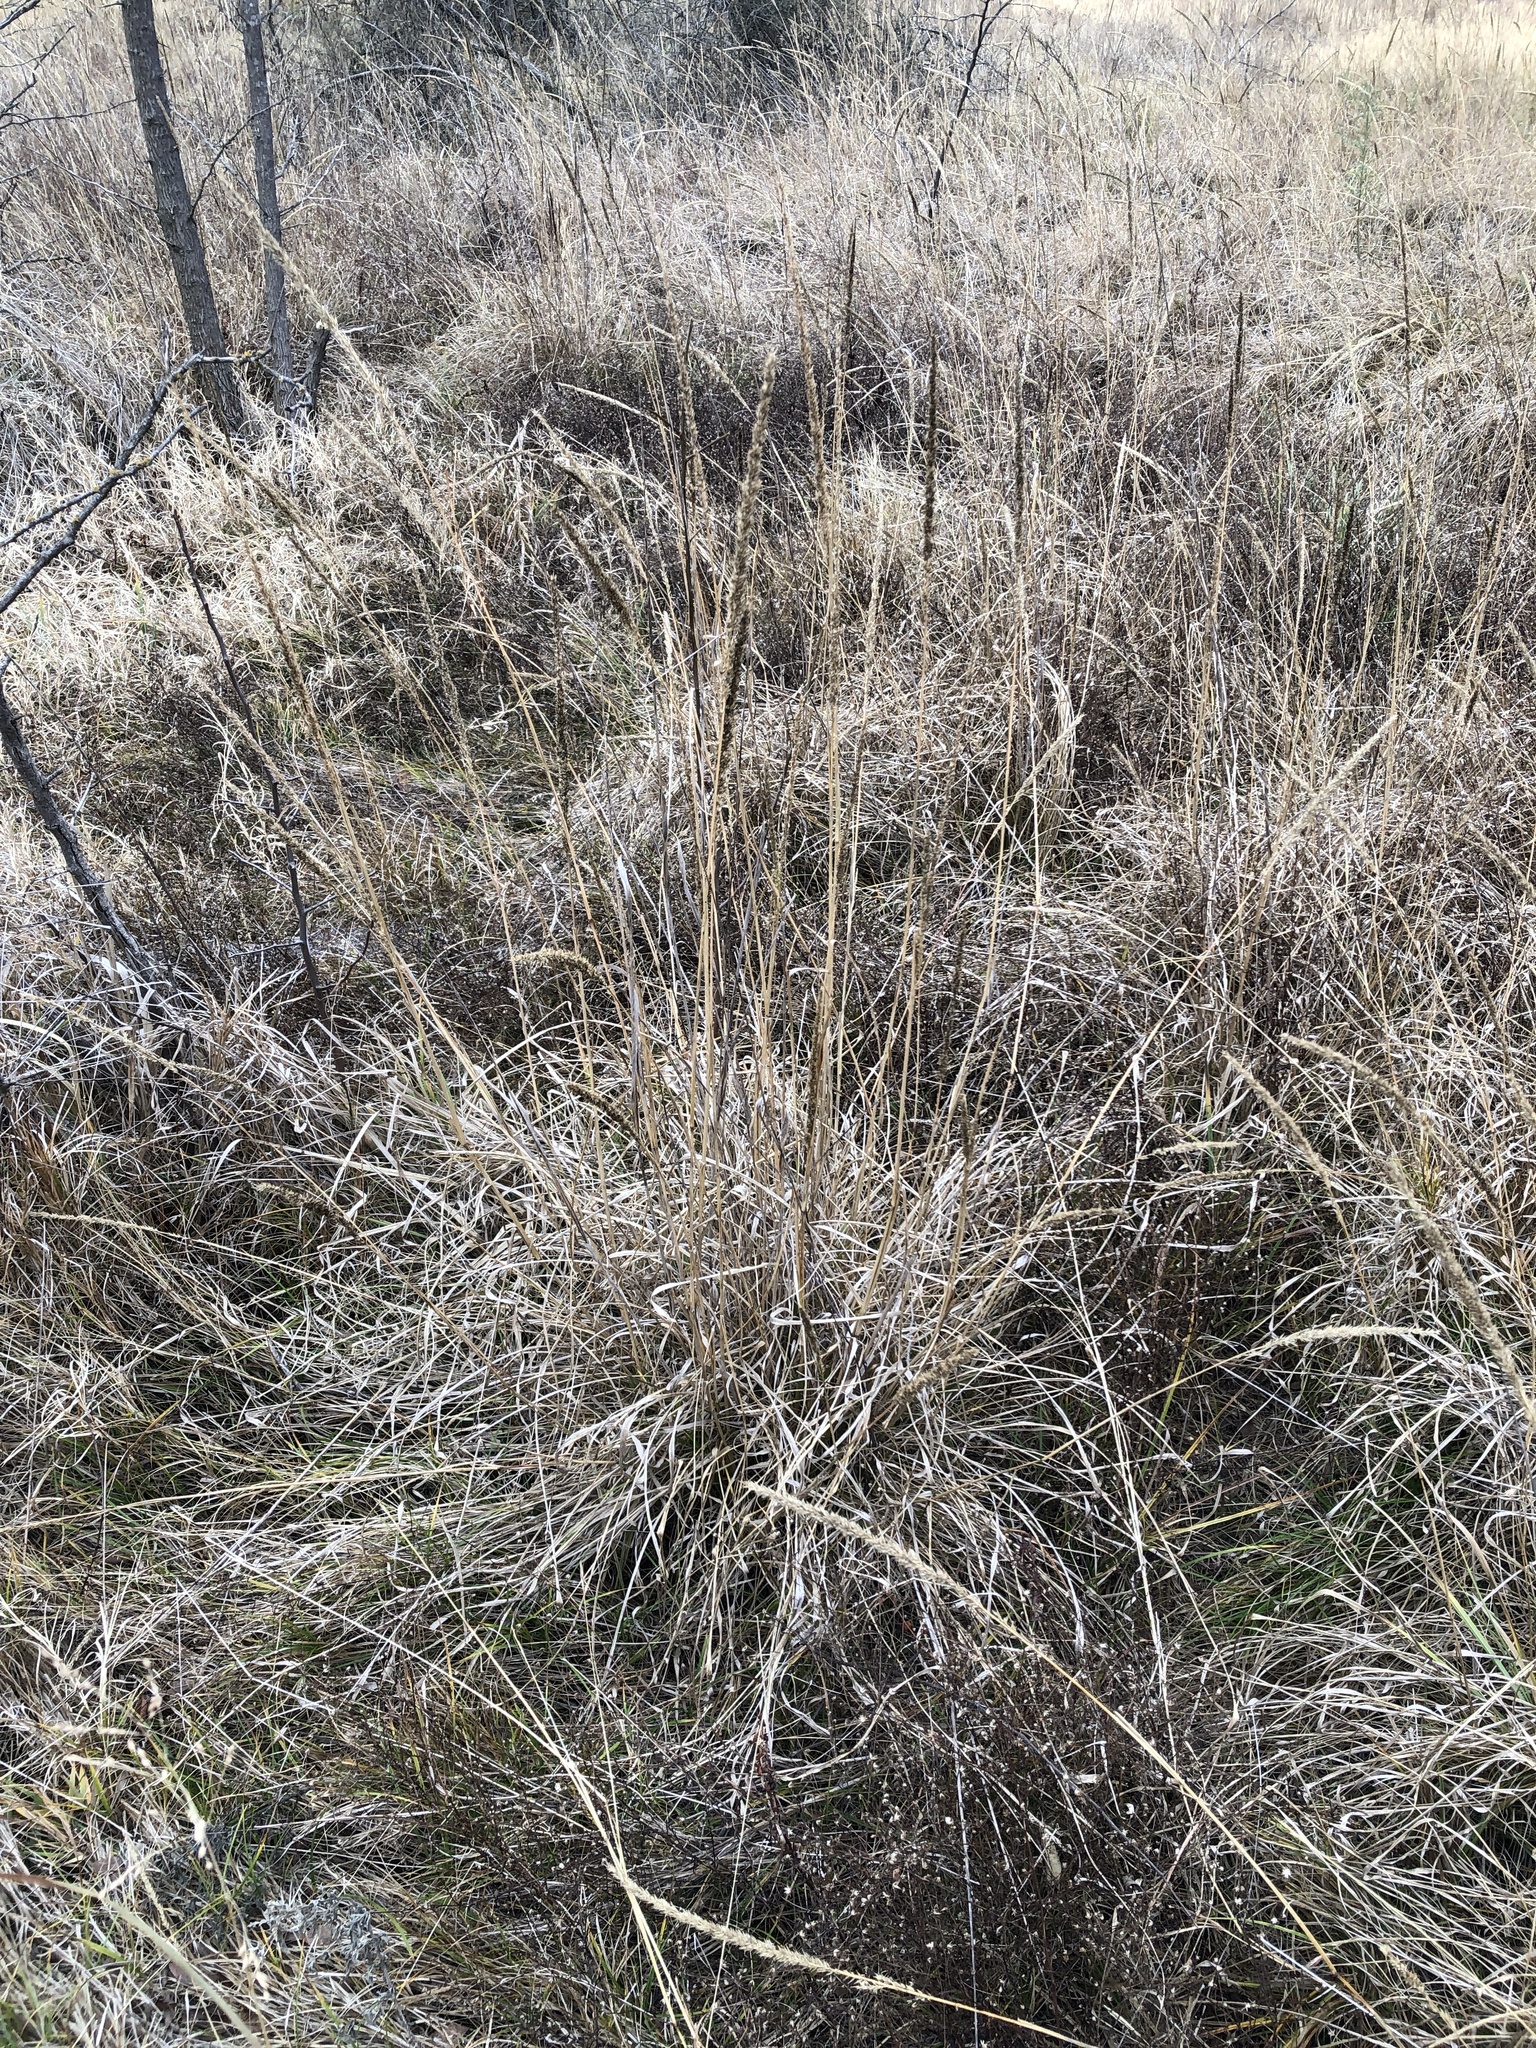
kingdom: Plantae
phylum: Tracheophyta
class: Liliopsida
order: Poales
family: Poaceae
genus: Tridens
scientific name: Tridens strictus
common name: Long-spike tridens
